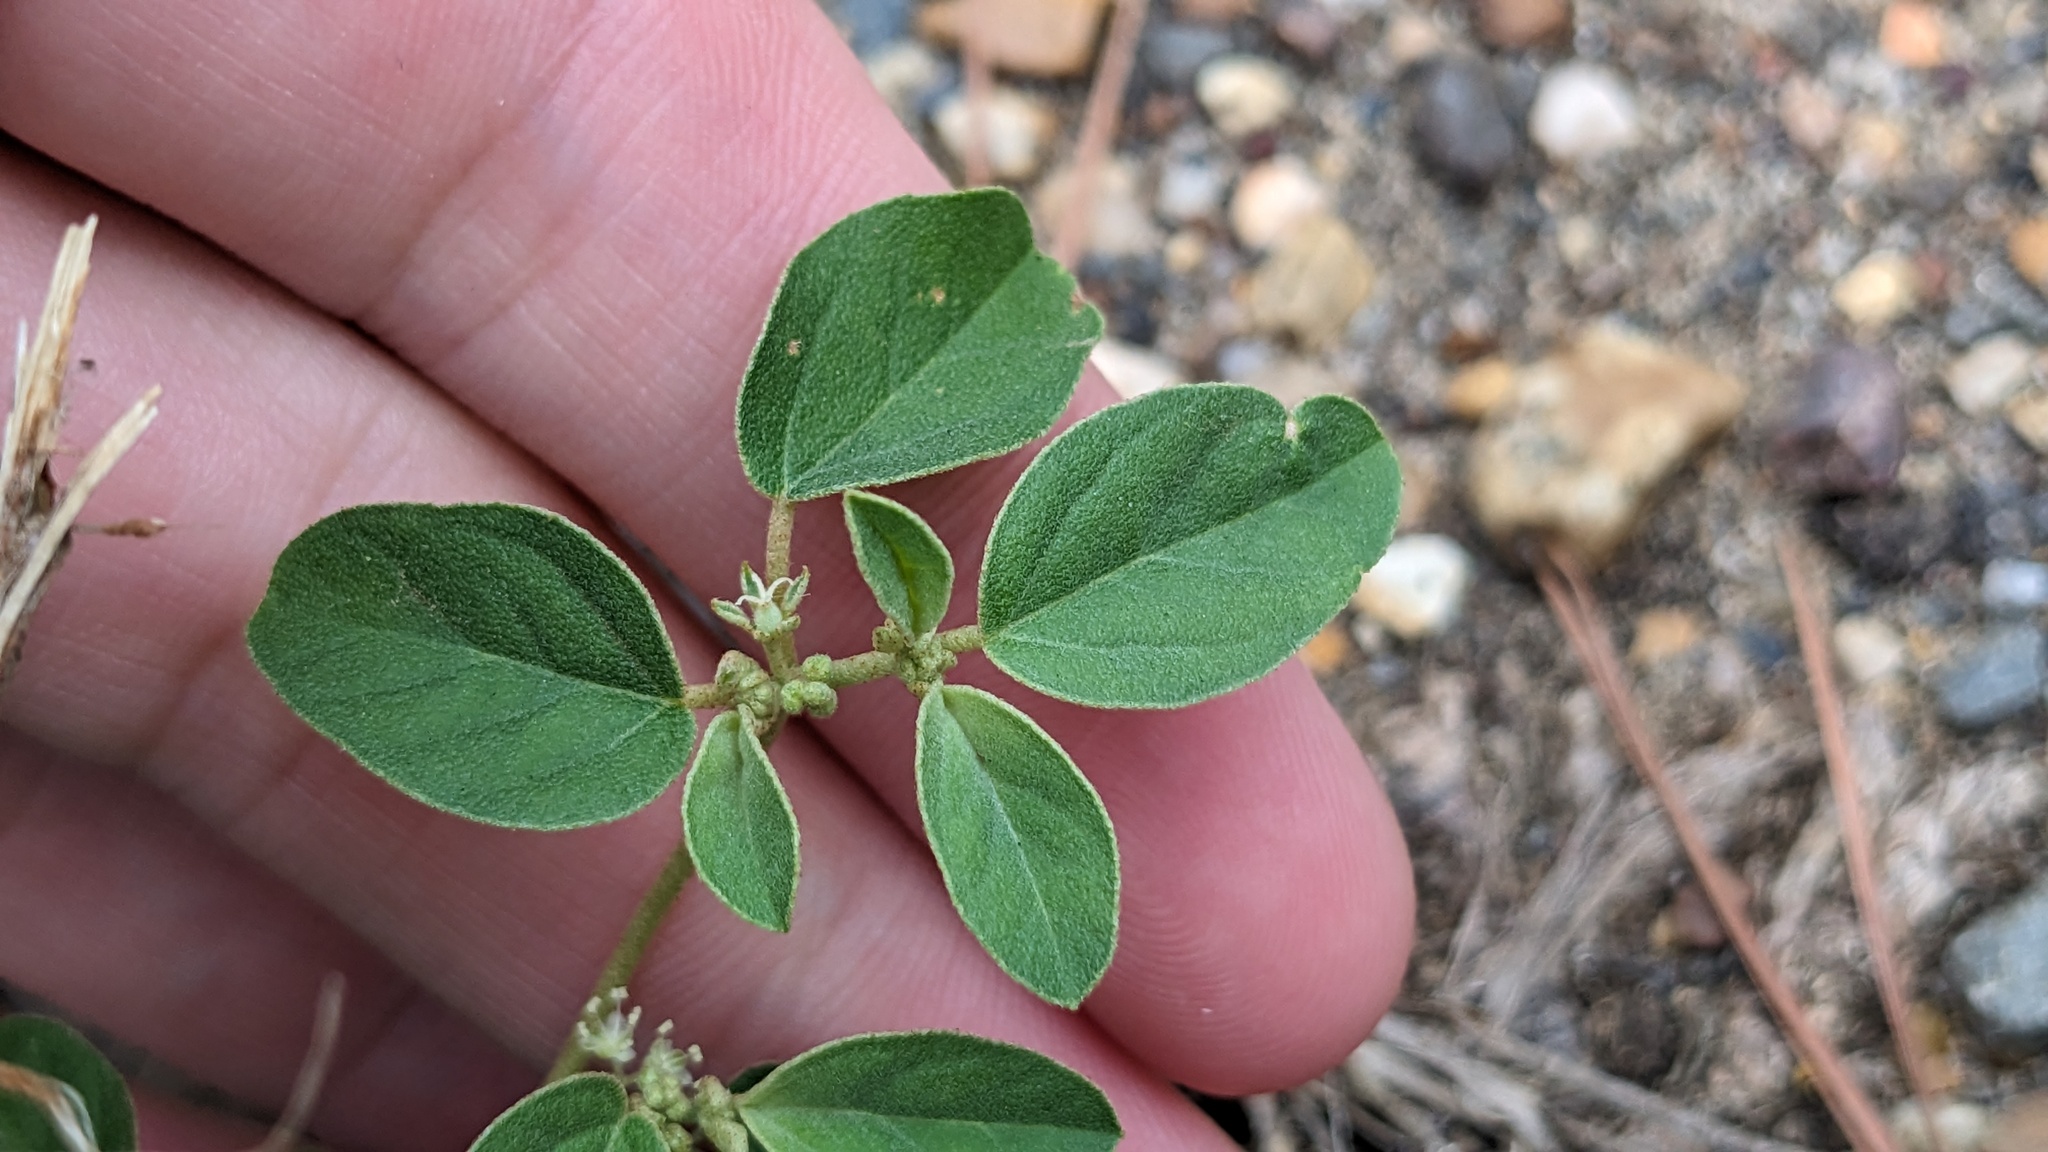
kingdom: Plantae
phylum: Tracheophyta
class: Magnoliopsida
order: Malpighiales
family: Euphorbiaceae
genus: Croton
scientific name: Croton monanthogynus
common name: One-seed croton
